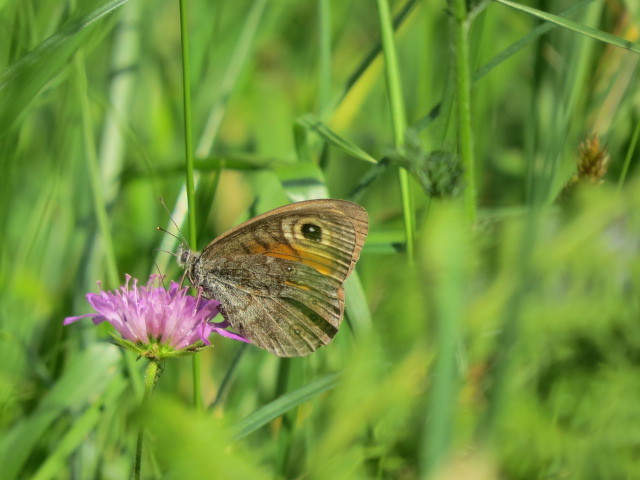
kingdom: Animalia
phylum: Arthropoda
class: Insecta
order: Lepidoptera
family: Nymphalidae
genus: Pararge
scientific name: Pararge Lasiommata maera
